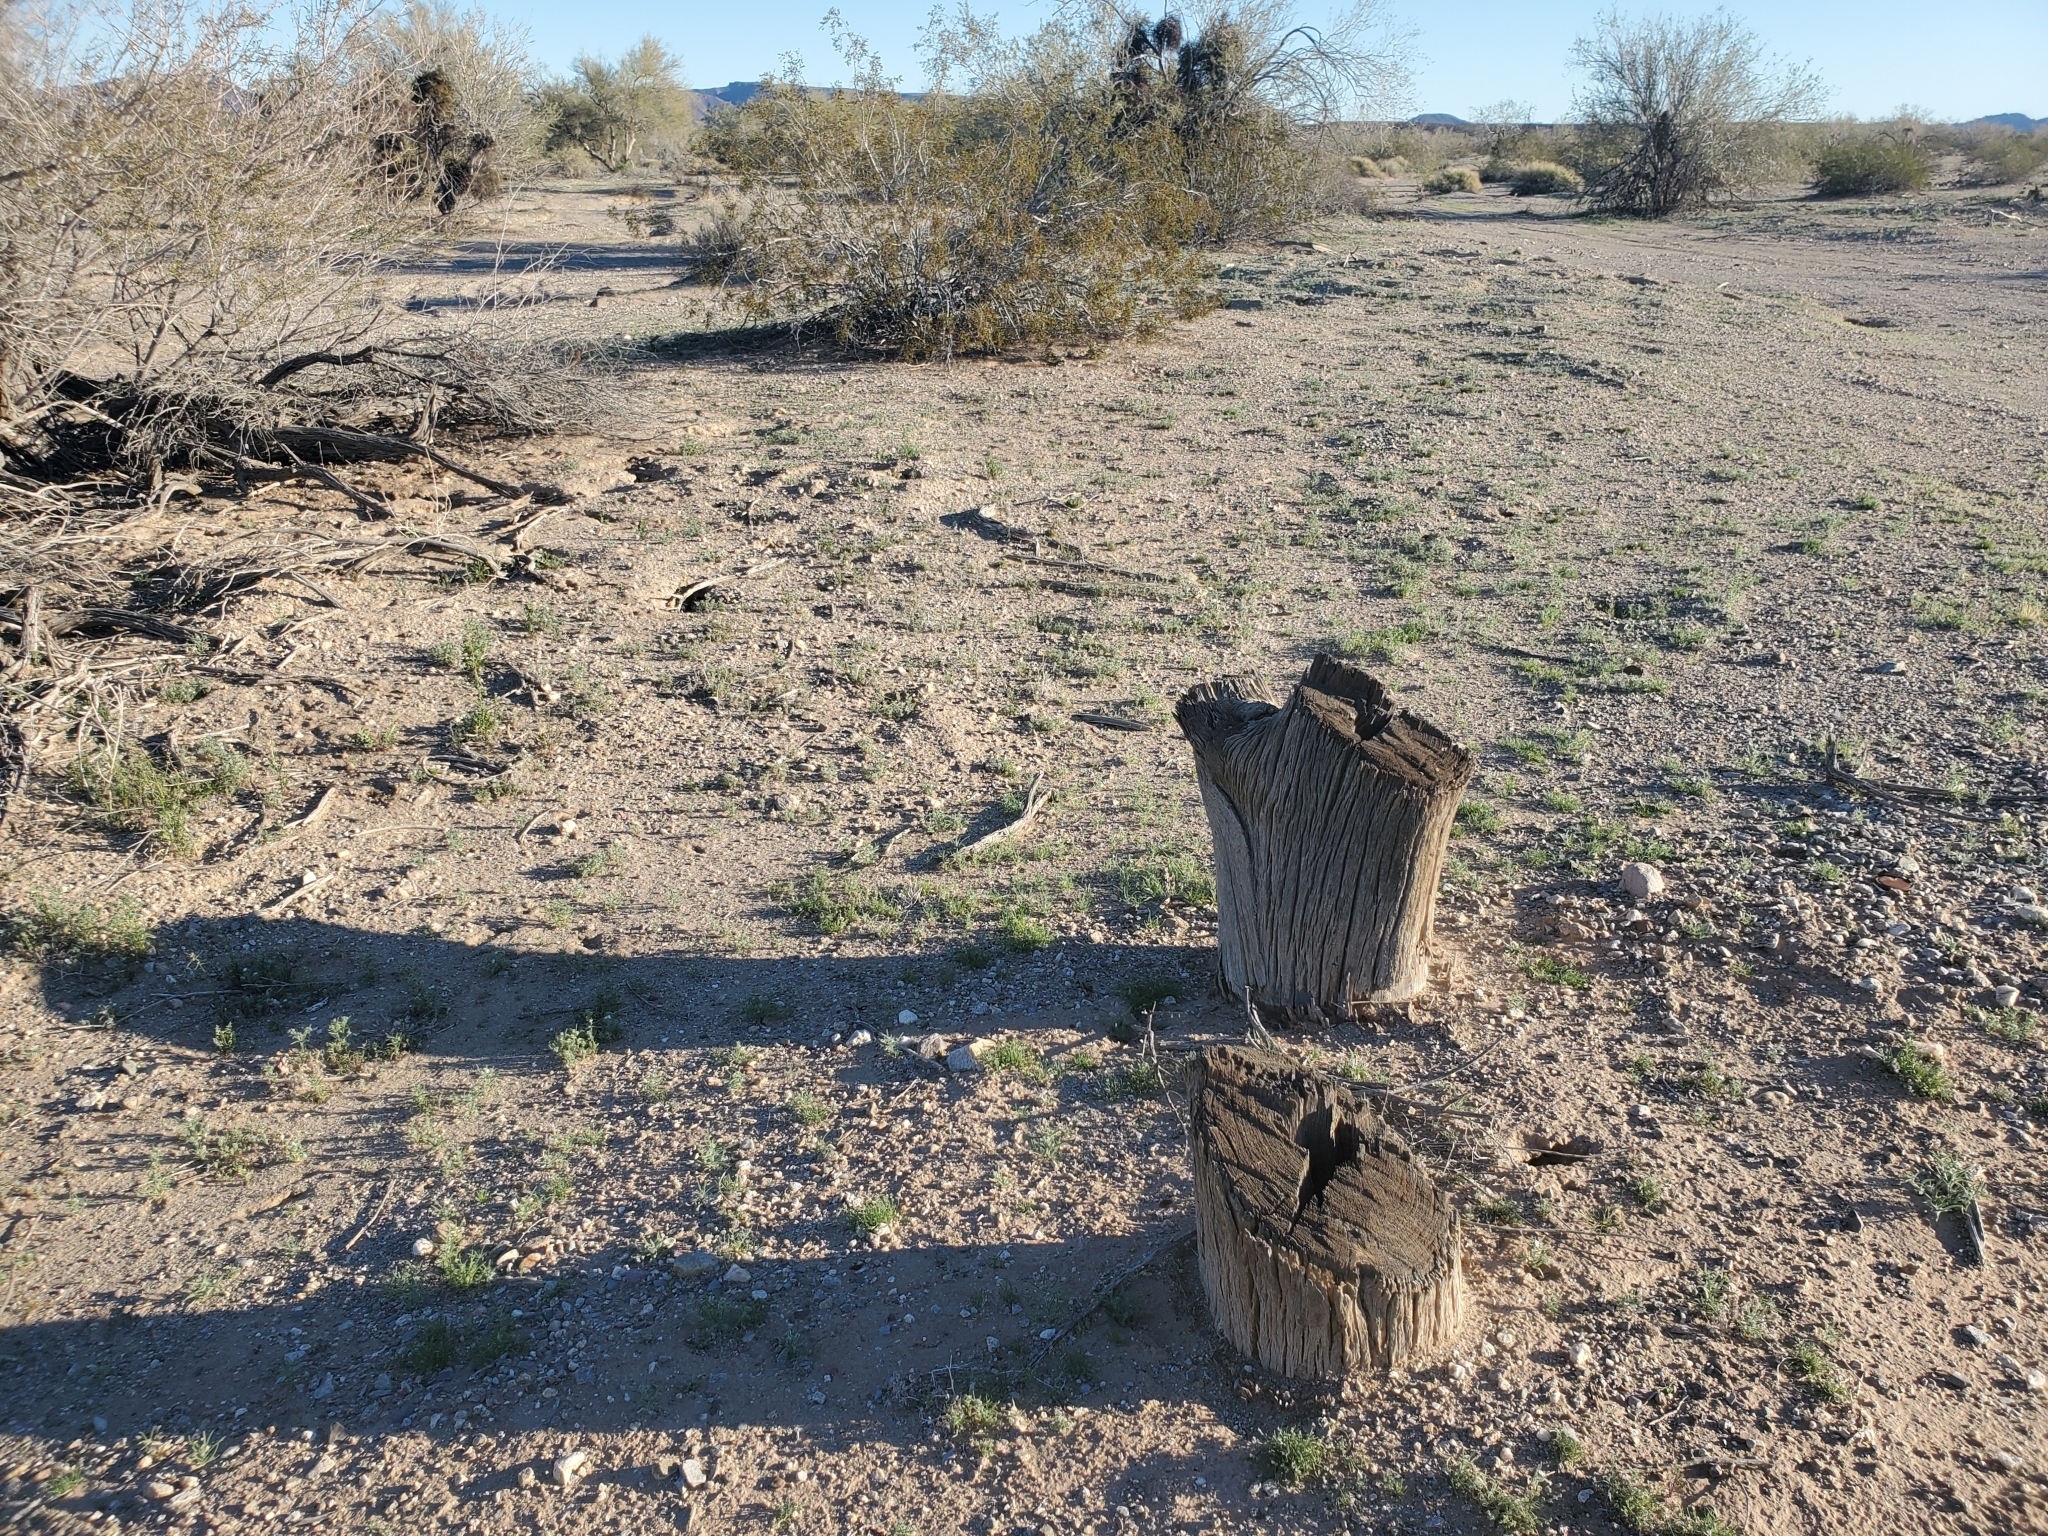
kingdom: Plantae
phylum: Tracheophyta
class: Magnoliopsida
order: Fabales
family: Fabaceae
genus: Olneya
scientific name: Olneya tesota
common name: Desert ironwood
